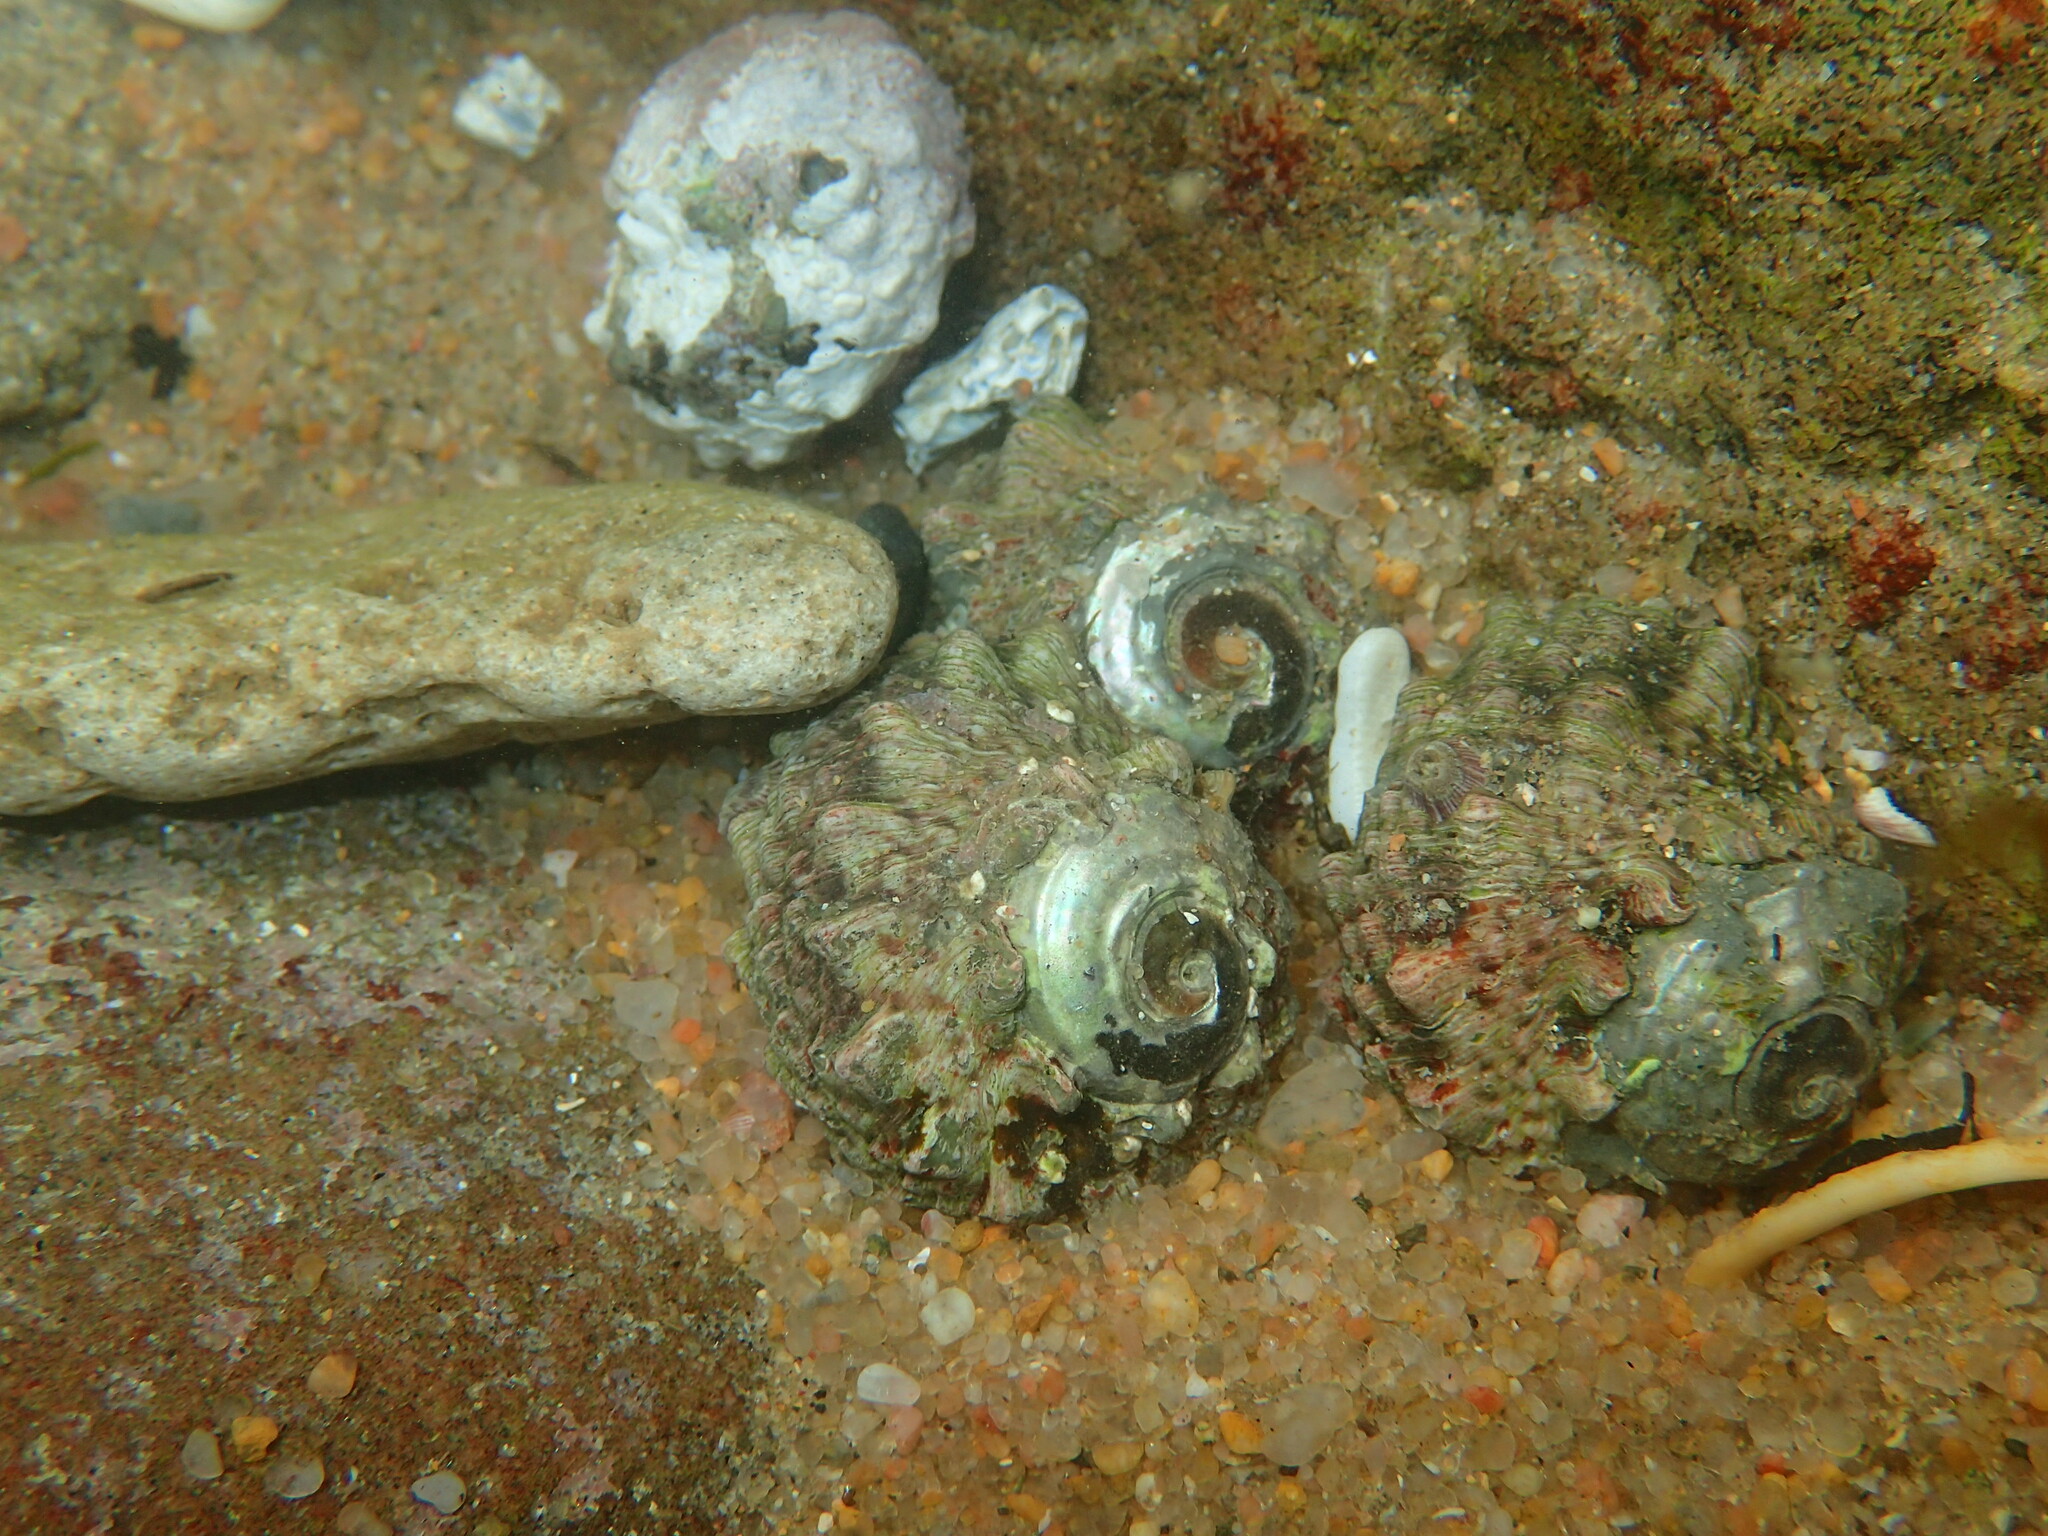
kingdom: Animalia
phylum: Mollusca
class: Gastropoda
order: Trochida
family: Turbinidae
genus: Lunella
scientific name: Lunella coronata
